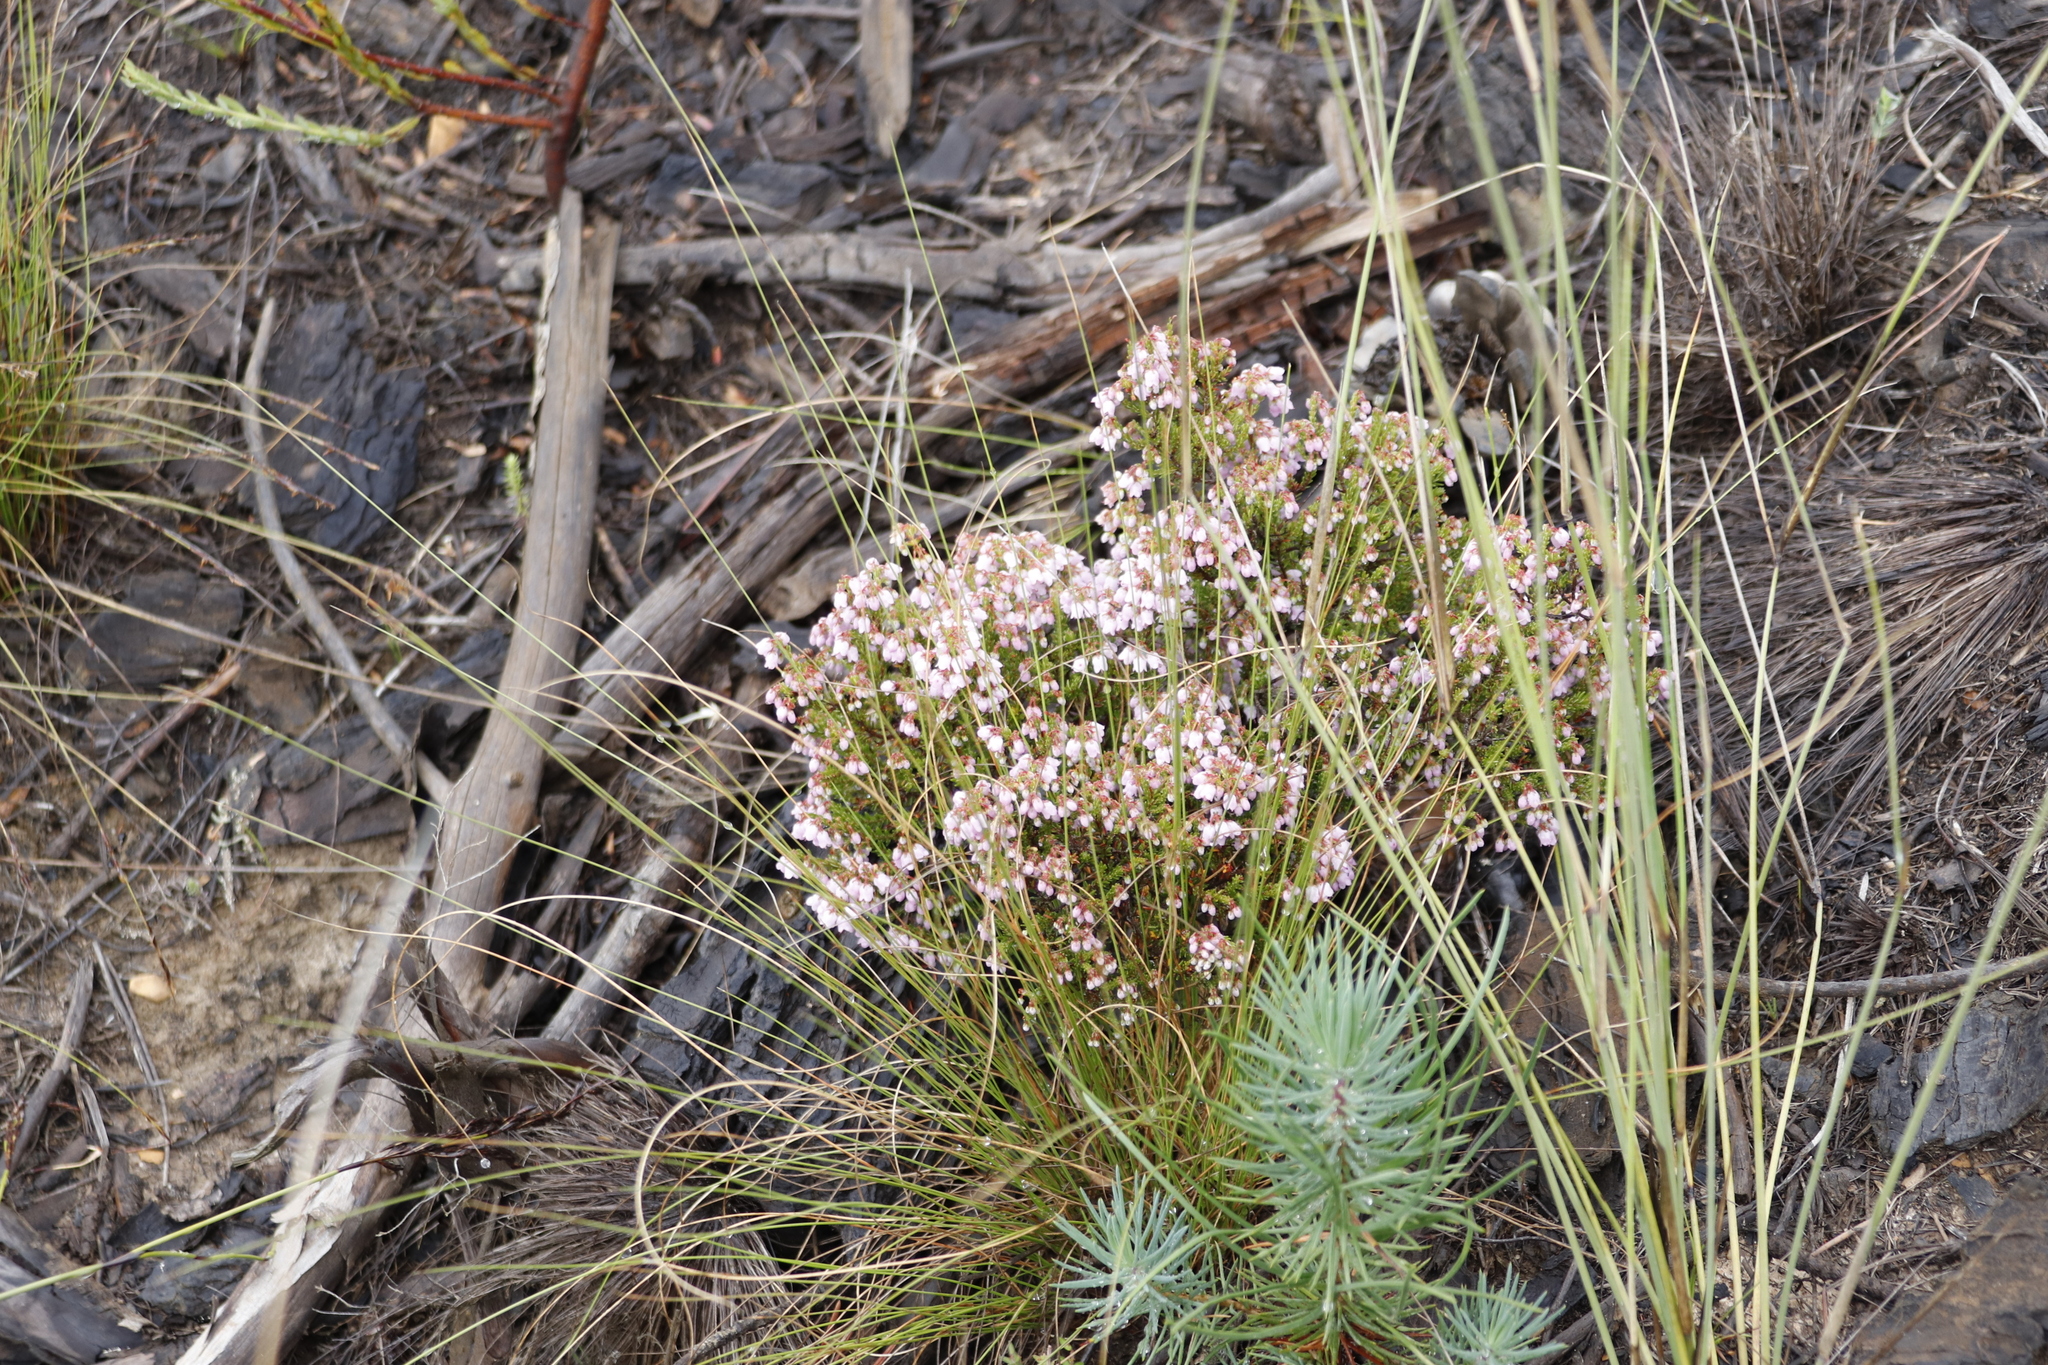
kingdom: Plantae
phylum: Tracheophyta
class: Magnoliopsida
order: Ericales
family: Ericaceae
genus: Erica
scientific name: Erica quadrangularis
